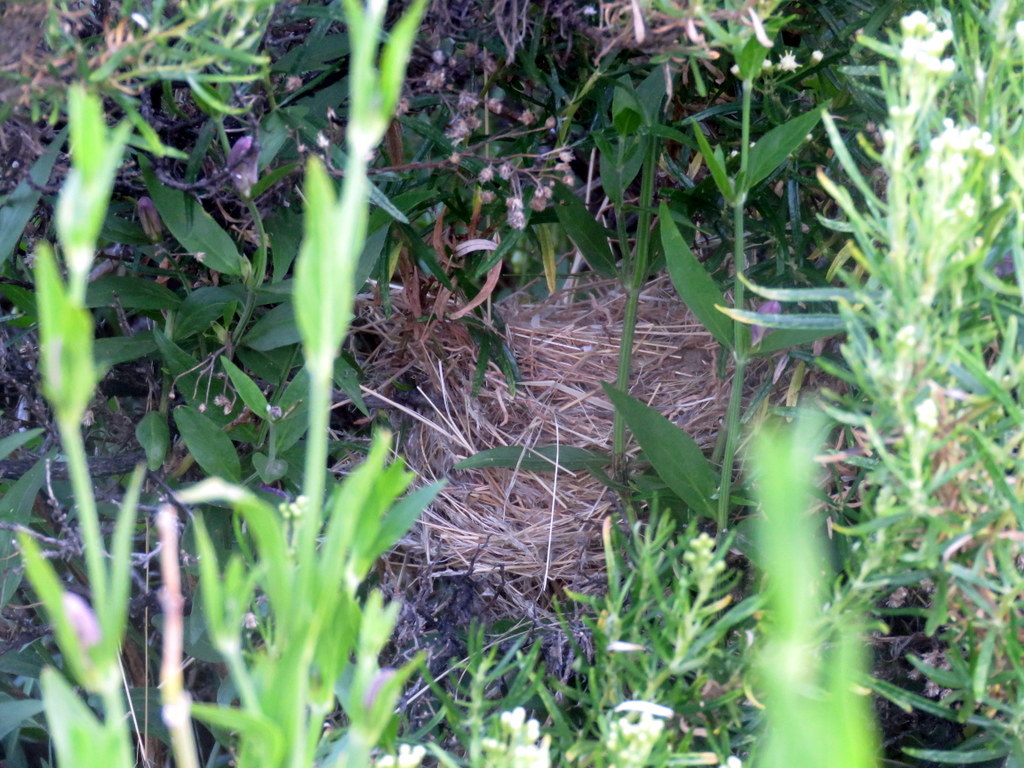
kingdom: Animalia
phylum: Chordata
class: Aves
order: Passeriformes
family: Thraupidae
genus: Poospizopsis
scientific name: Poospizopsis hypocondria
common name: Rufous-sided warbling-finch
